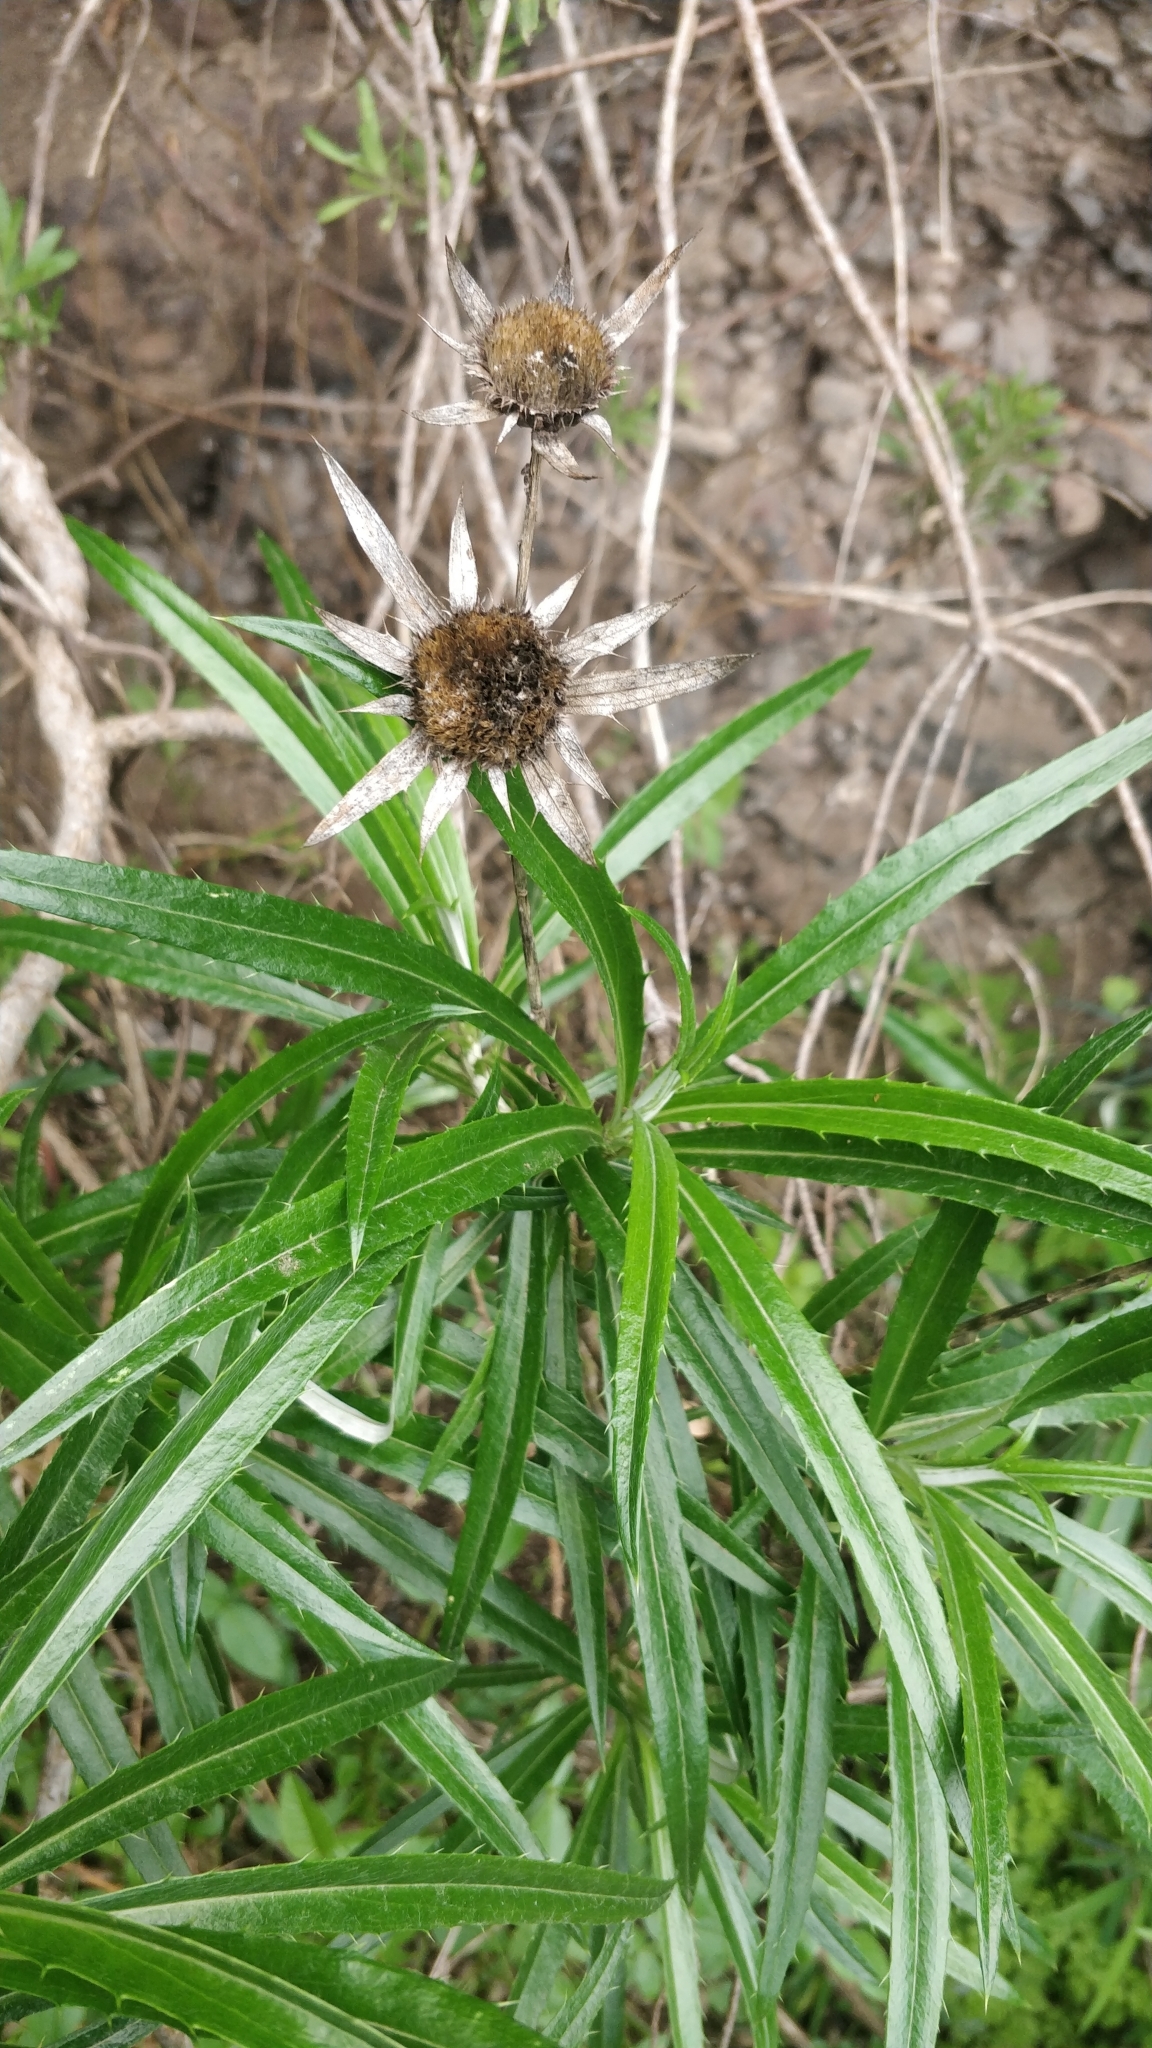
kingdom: Plantae
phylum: Tracheophyta
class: Magnoliopsida
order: Asterales
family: Asteraceae
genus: Carlina
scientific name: Carlina salicifolia
